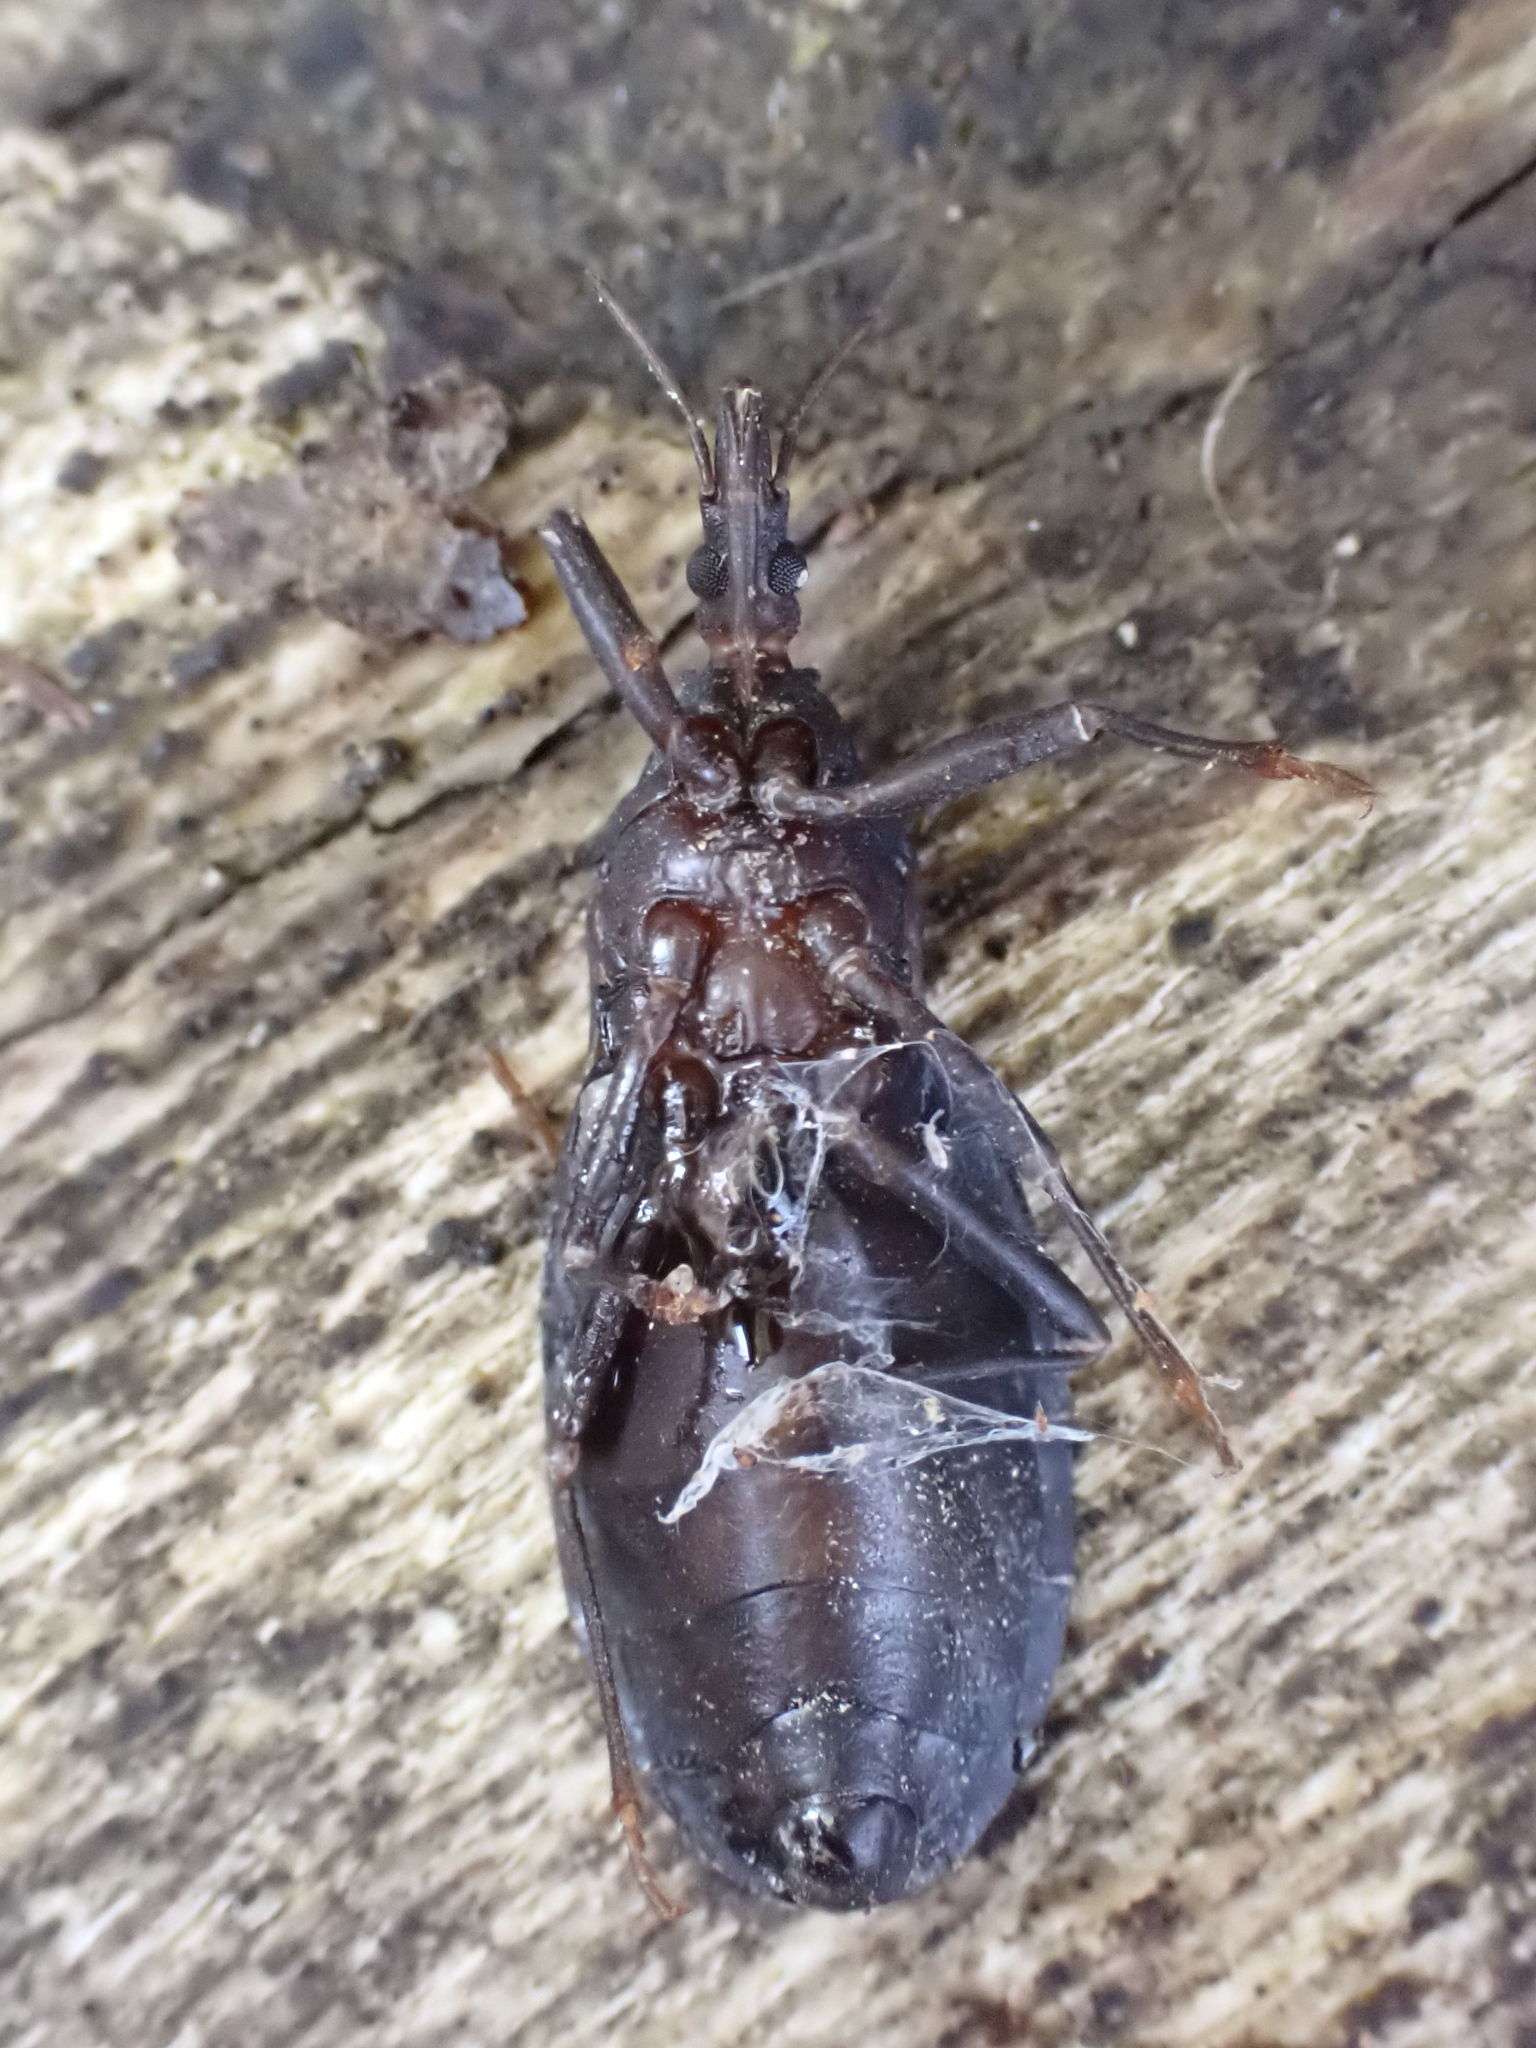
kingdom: Animalia
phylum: Arthropoda
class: Insecta
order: Hemiptera
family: Reduviidae
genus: Triatoma
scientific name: Triatoma protracta
